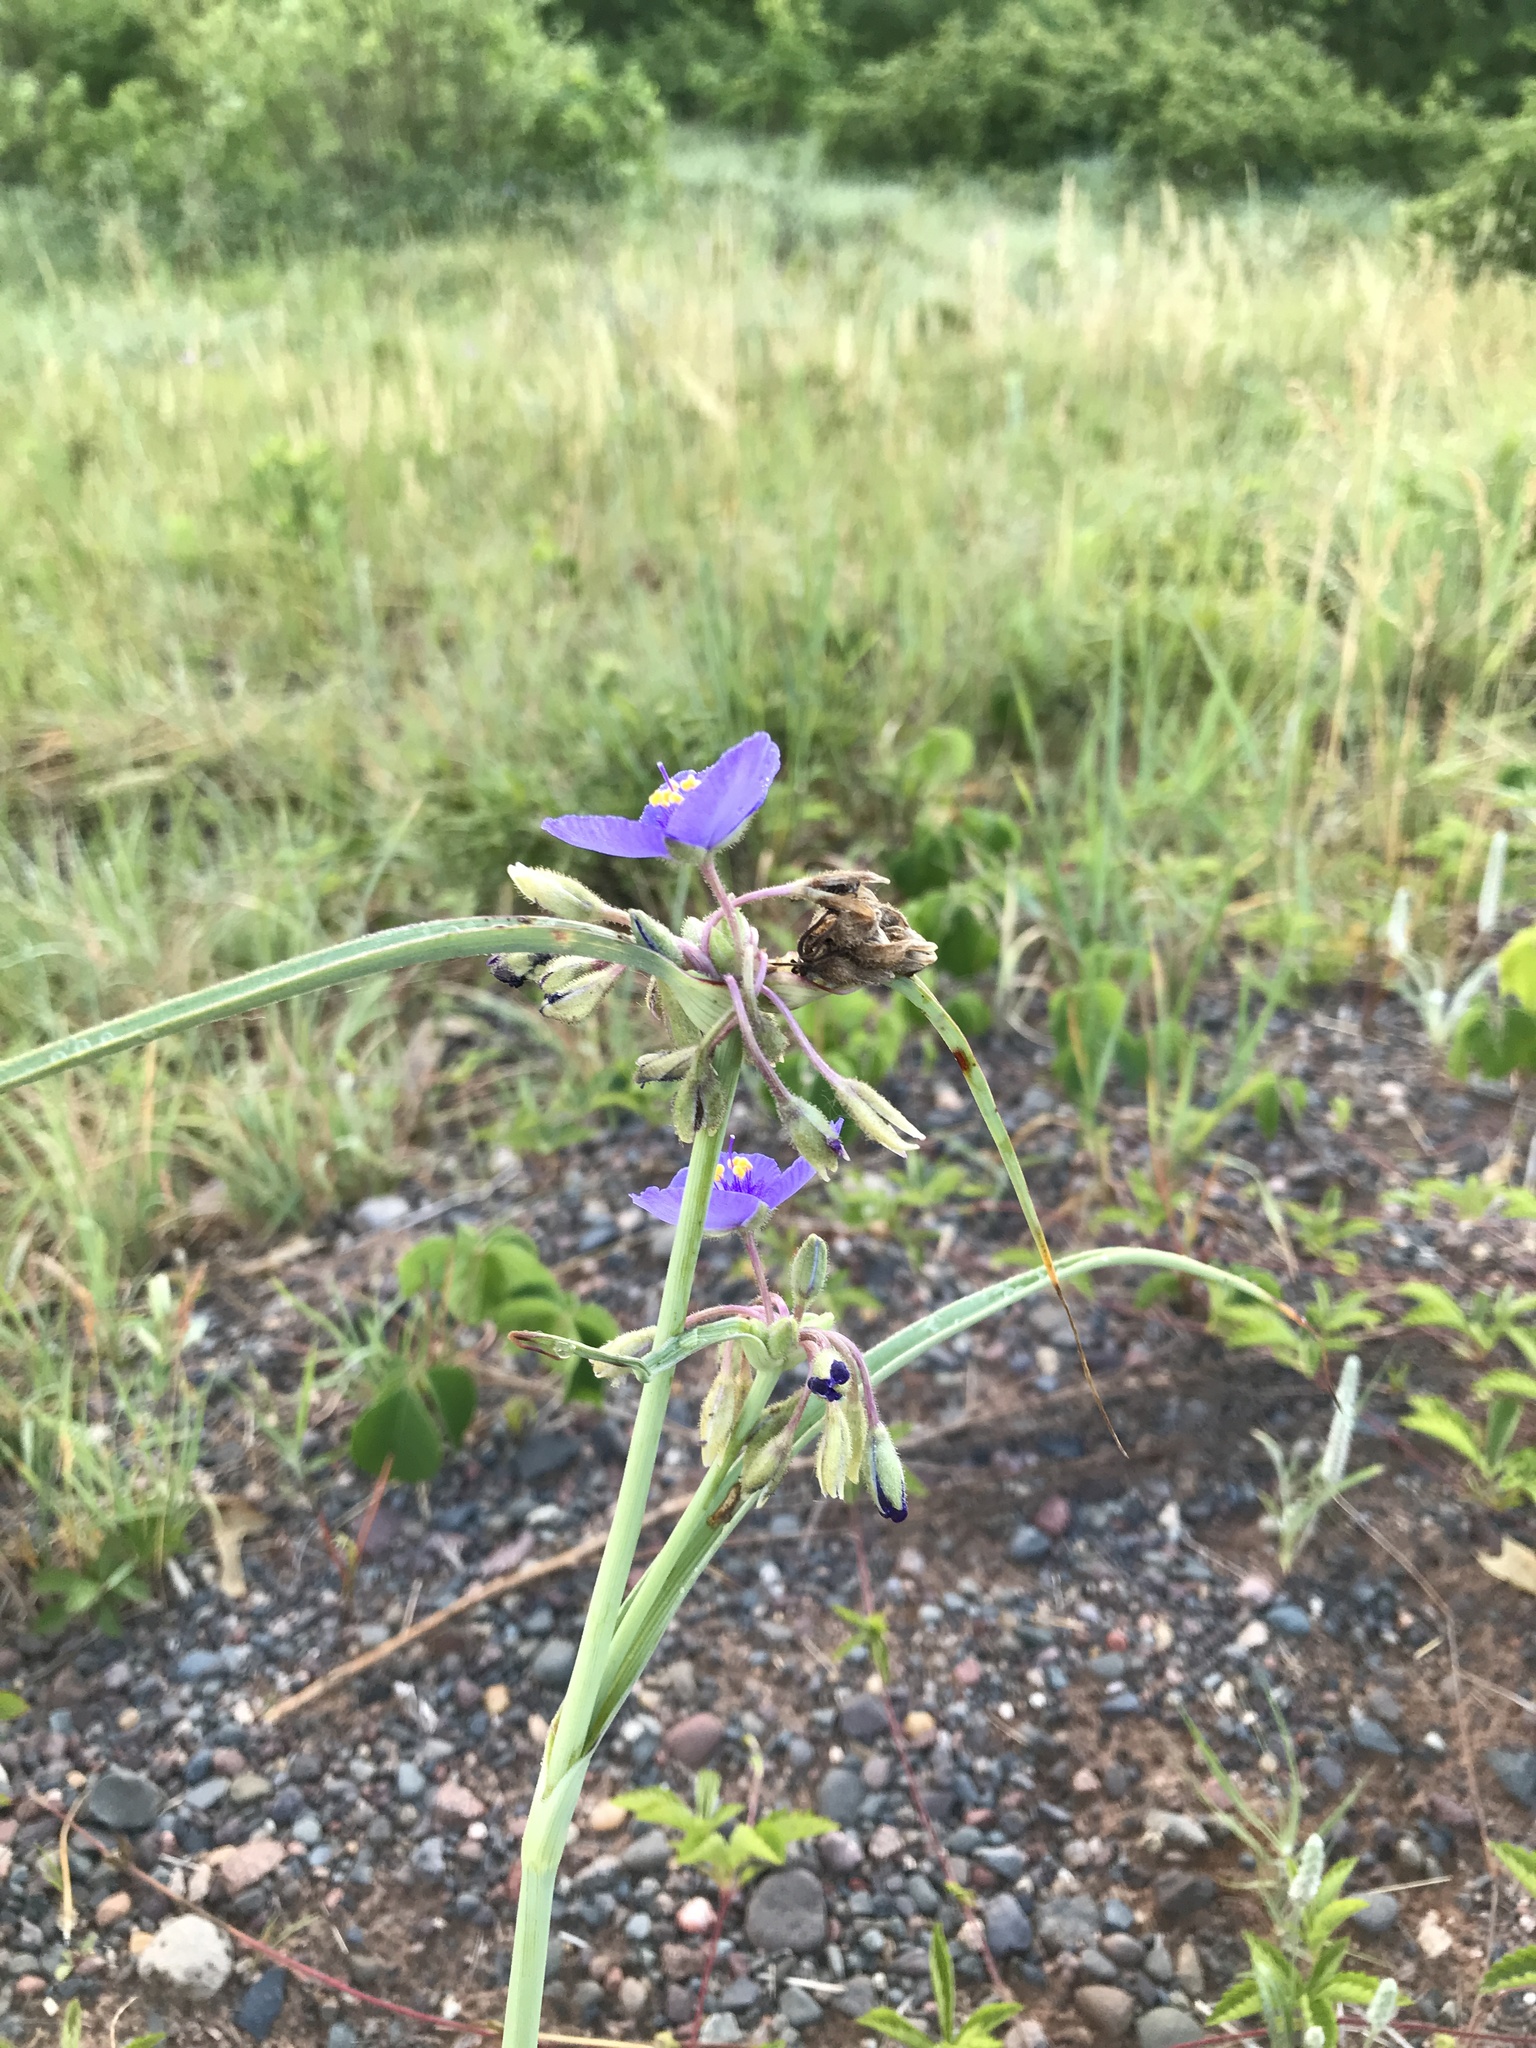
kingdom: Plantae
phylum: Tracheophyta
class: Liliopsida
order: Commelinales
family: Commelinaceae
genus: Tradescantia
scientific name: Tradescantia occidentalis
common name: Prairie spiderwort
